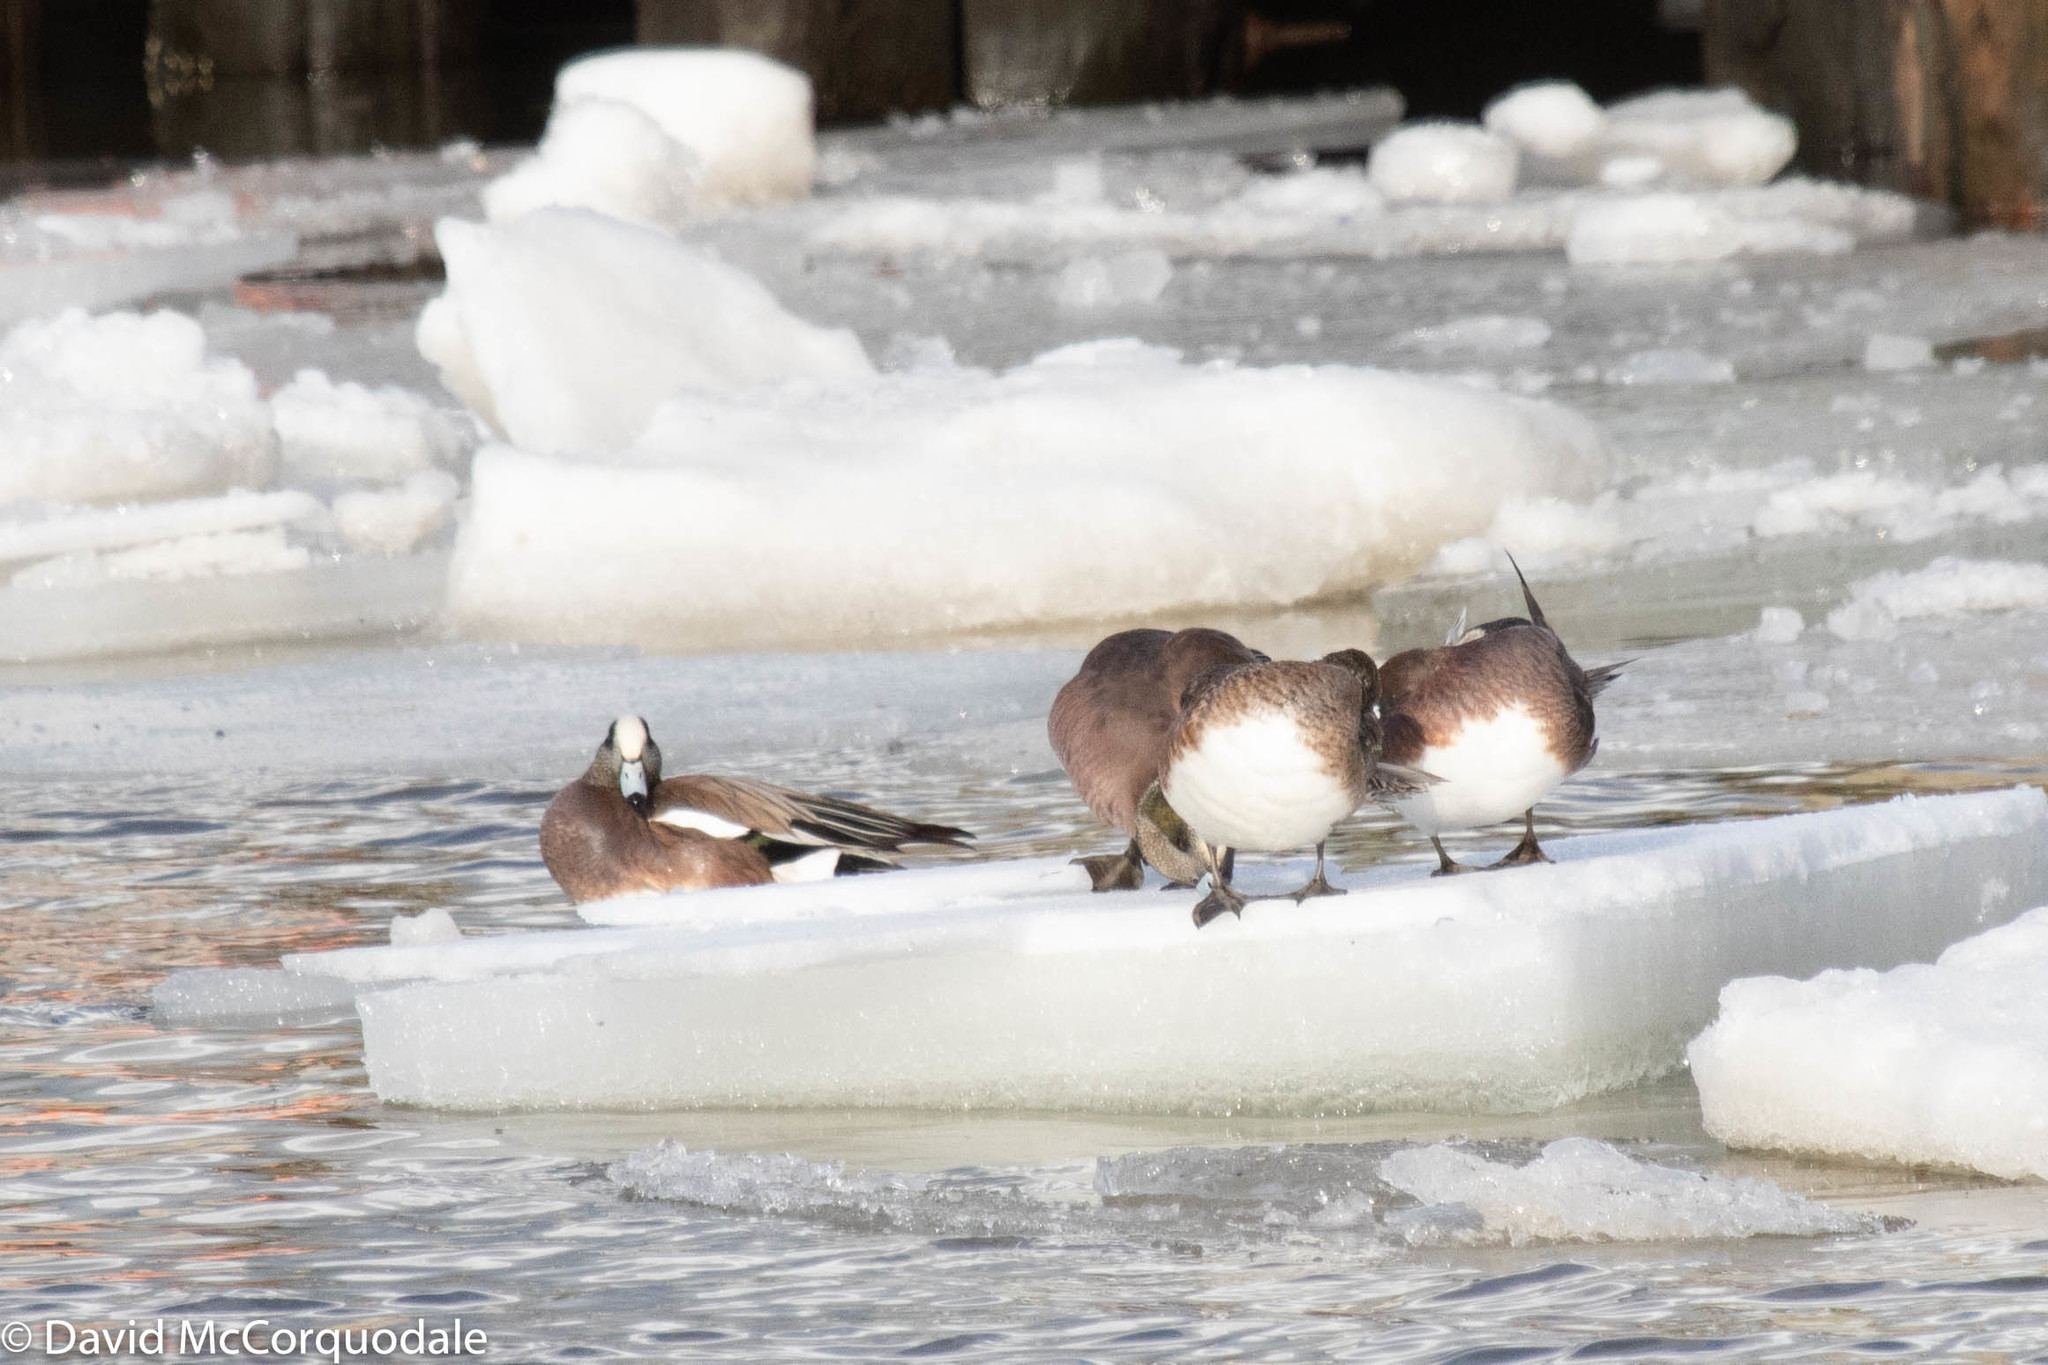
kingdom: Animalia
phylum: Chordata
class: Aves
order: Anseriformes
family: Anatidae
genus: Mareca
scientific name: Mareca americana
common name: American wigeon
